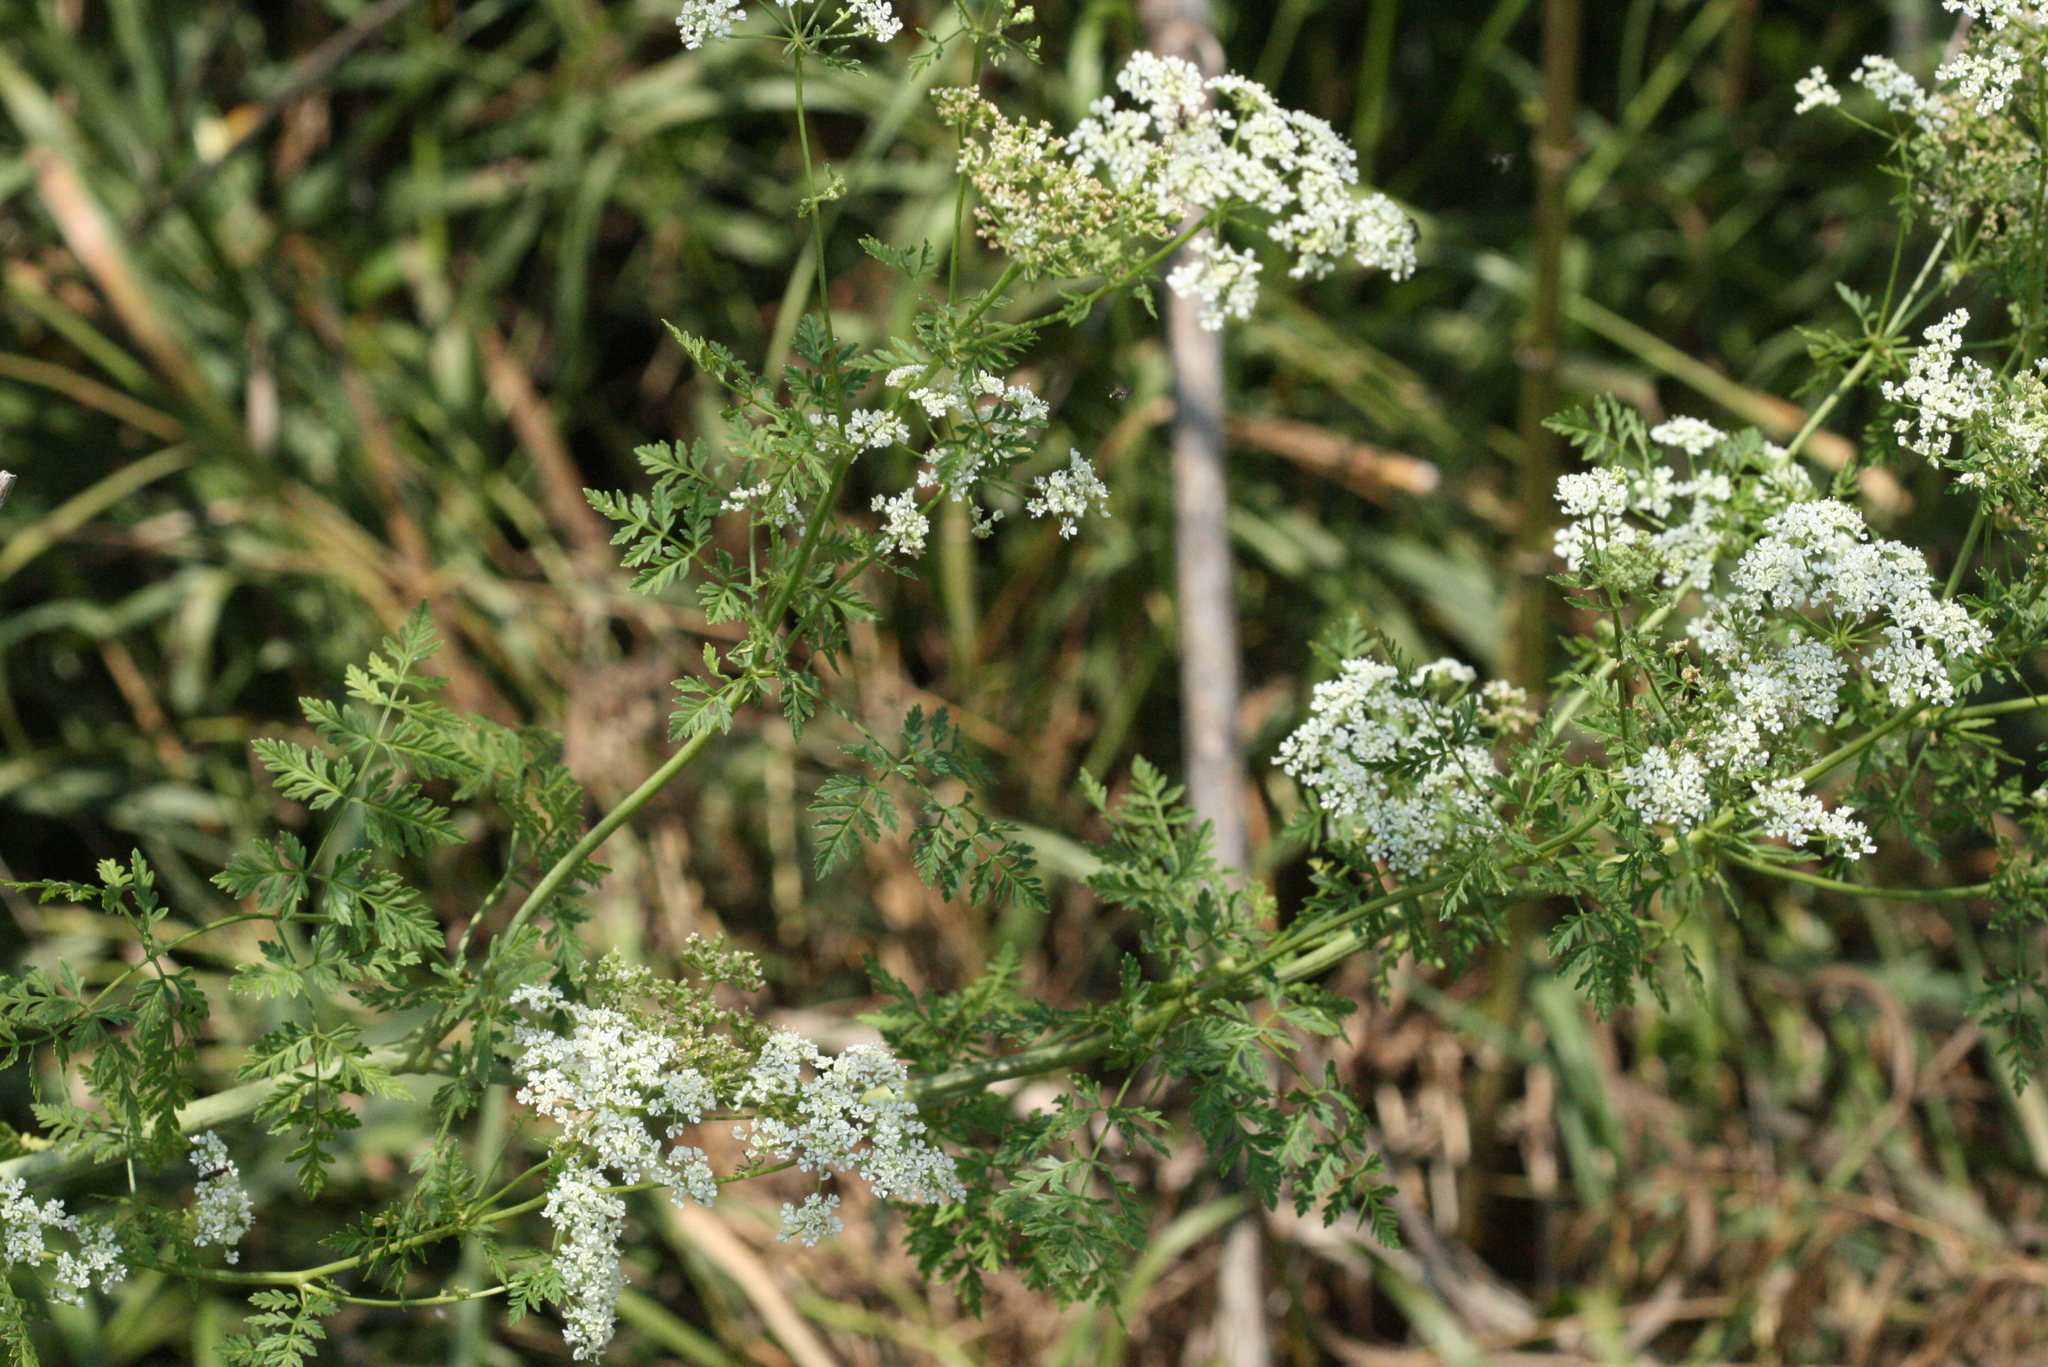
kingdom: Plantae
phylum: Tracheophyta
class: Magnoliopsida
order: Apiales
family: Apiaceae
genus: Conium
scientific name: Conium maculatum
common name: Hemlock
